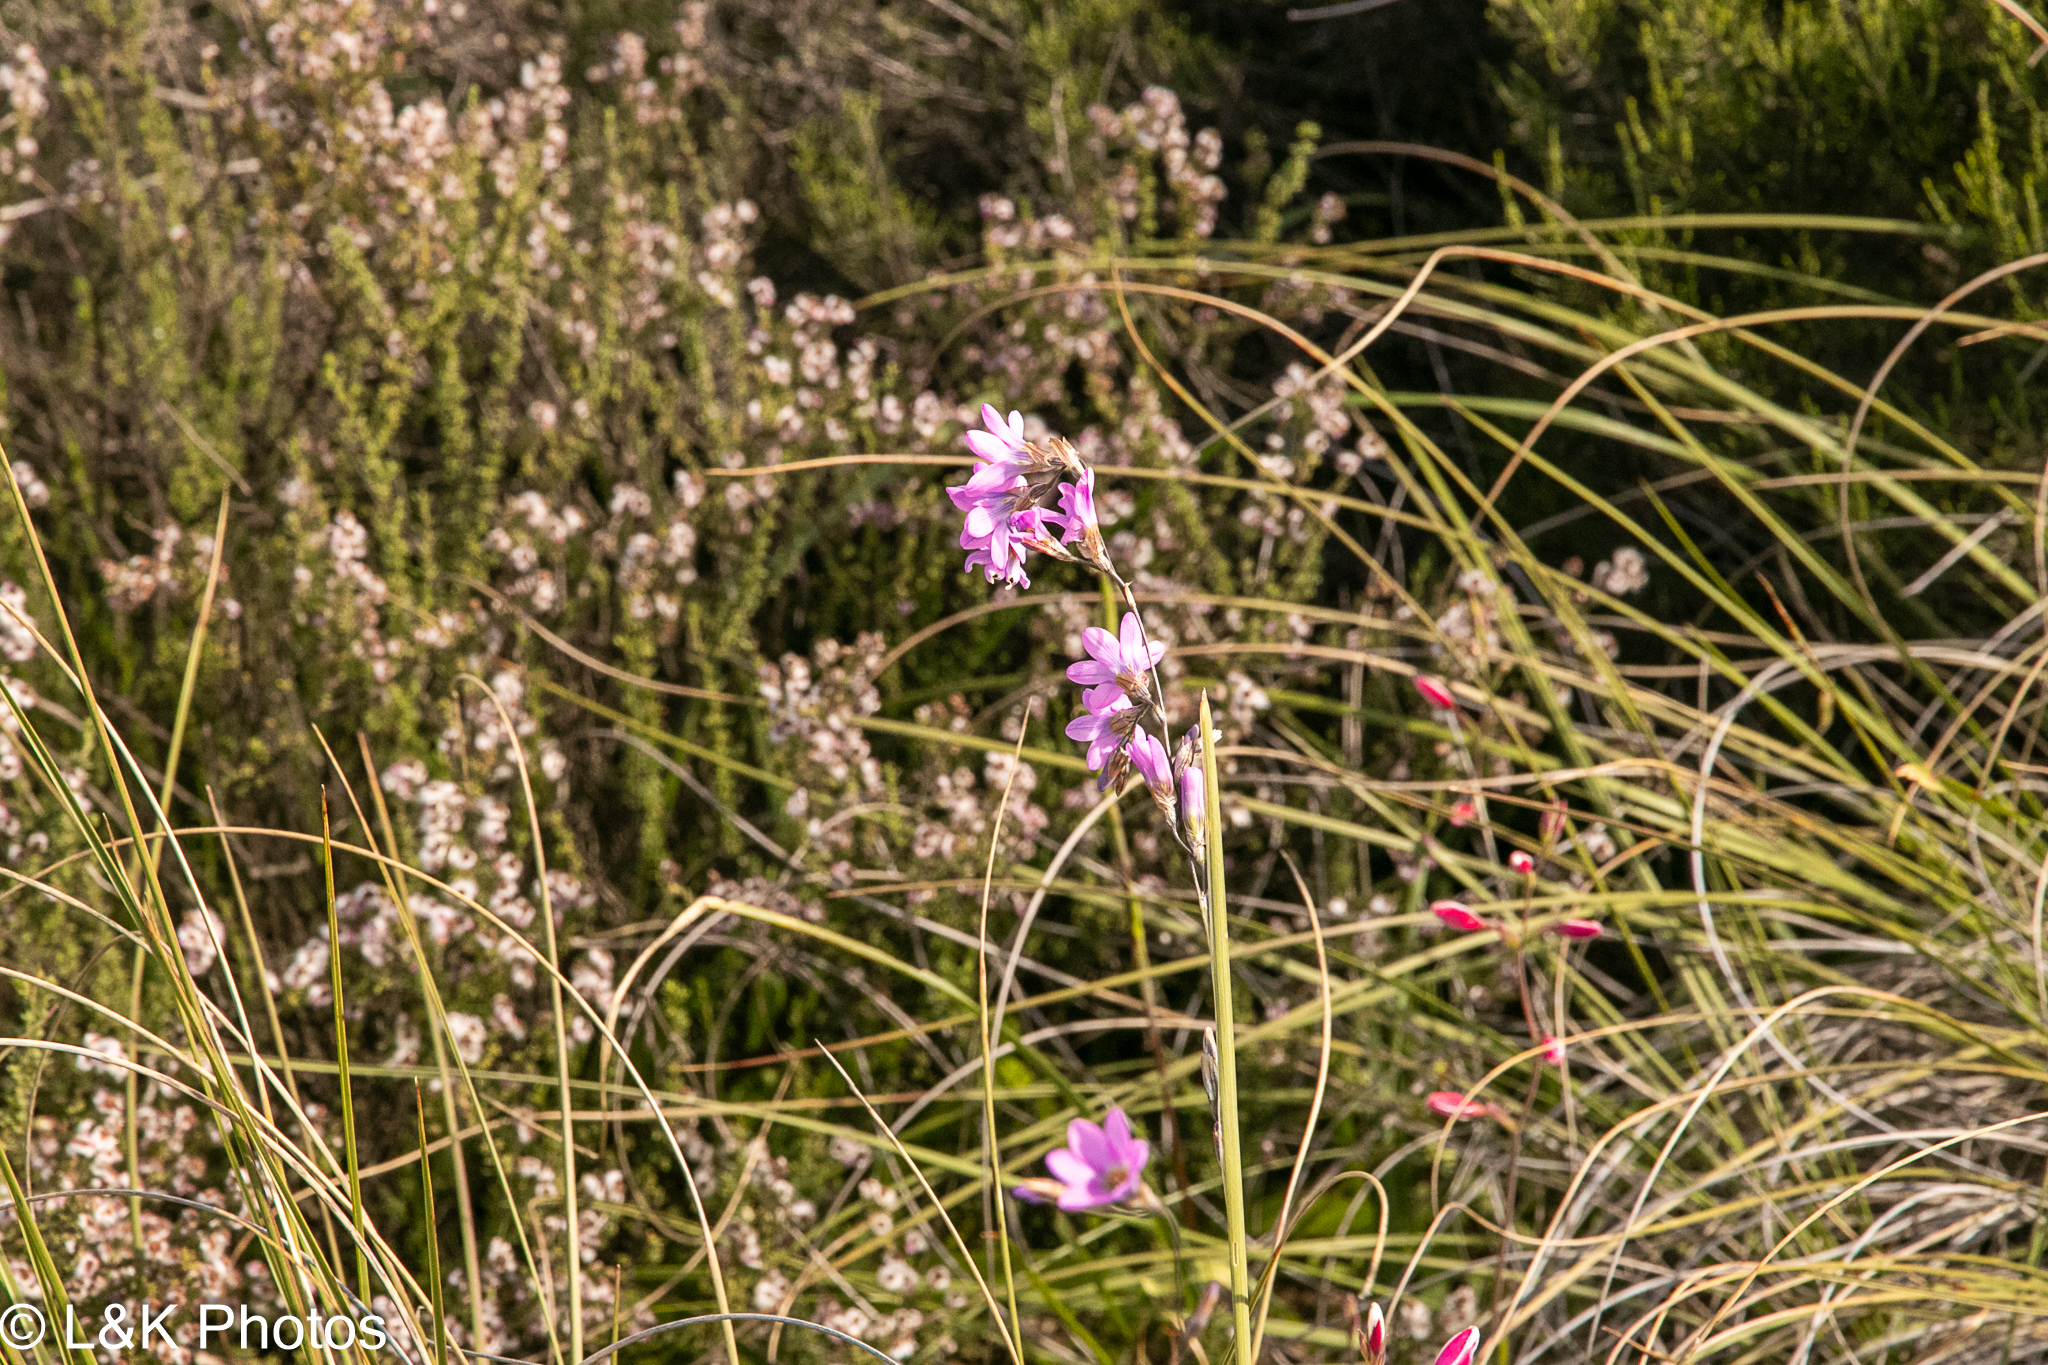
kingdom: Plantae
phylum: Tracheophyta
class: Liliopsida
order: Asparagales
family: Iridaceae
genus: Ixia
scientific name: Ixia rapunculoides
